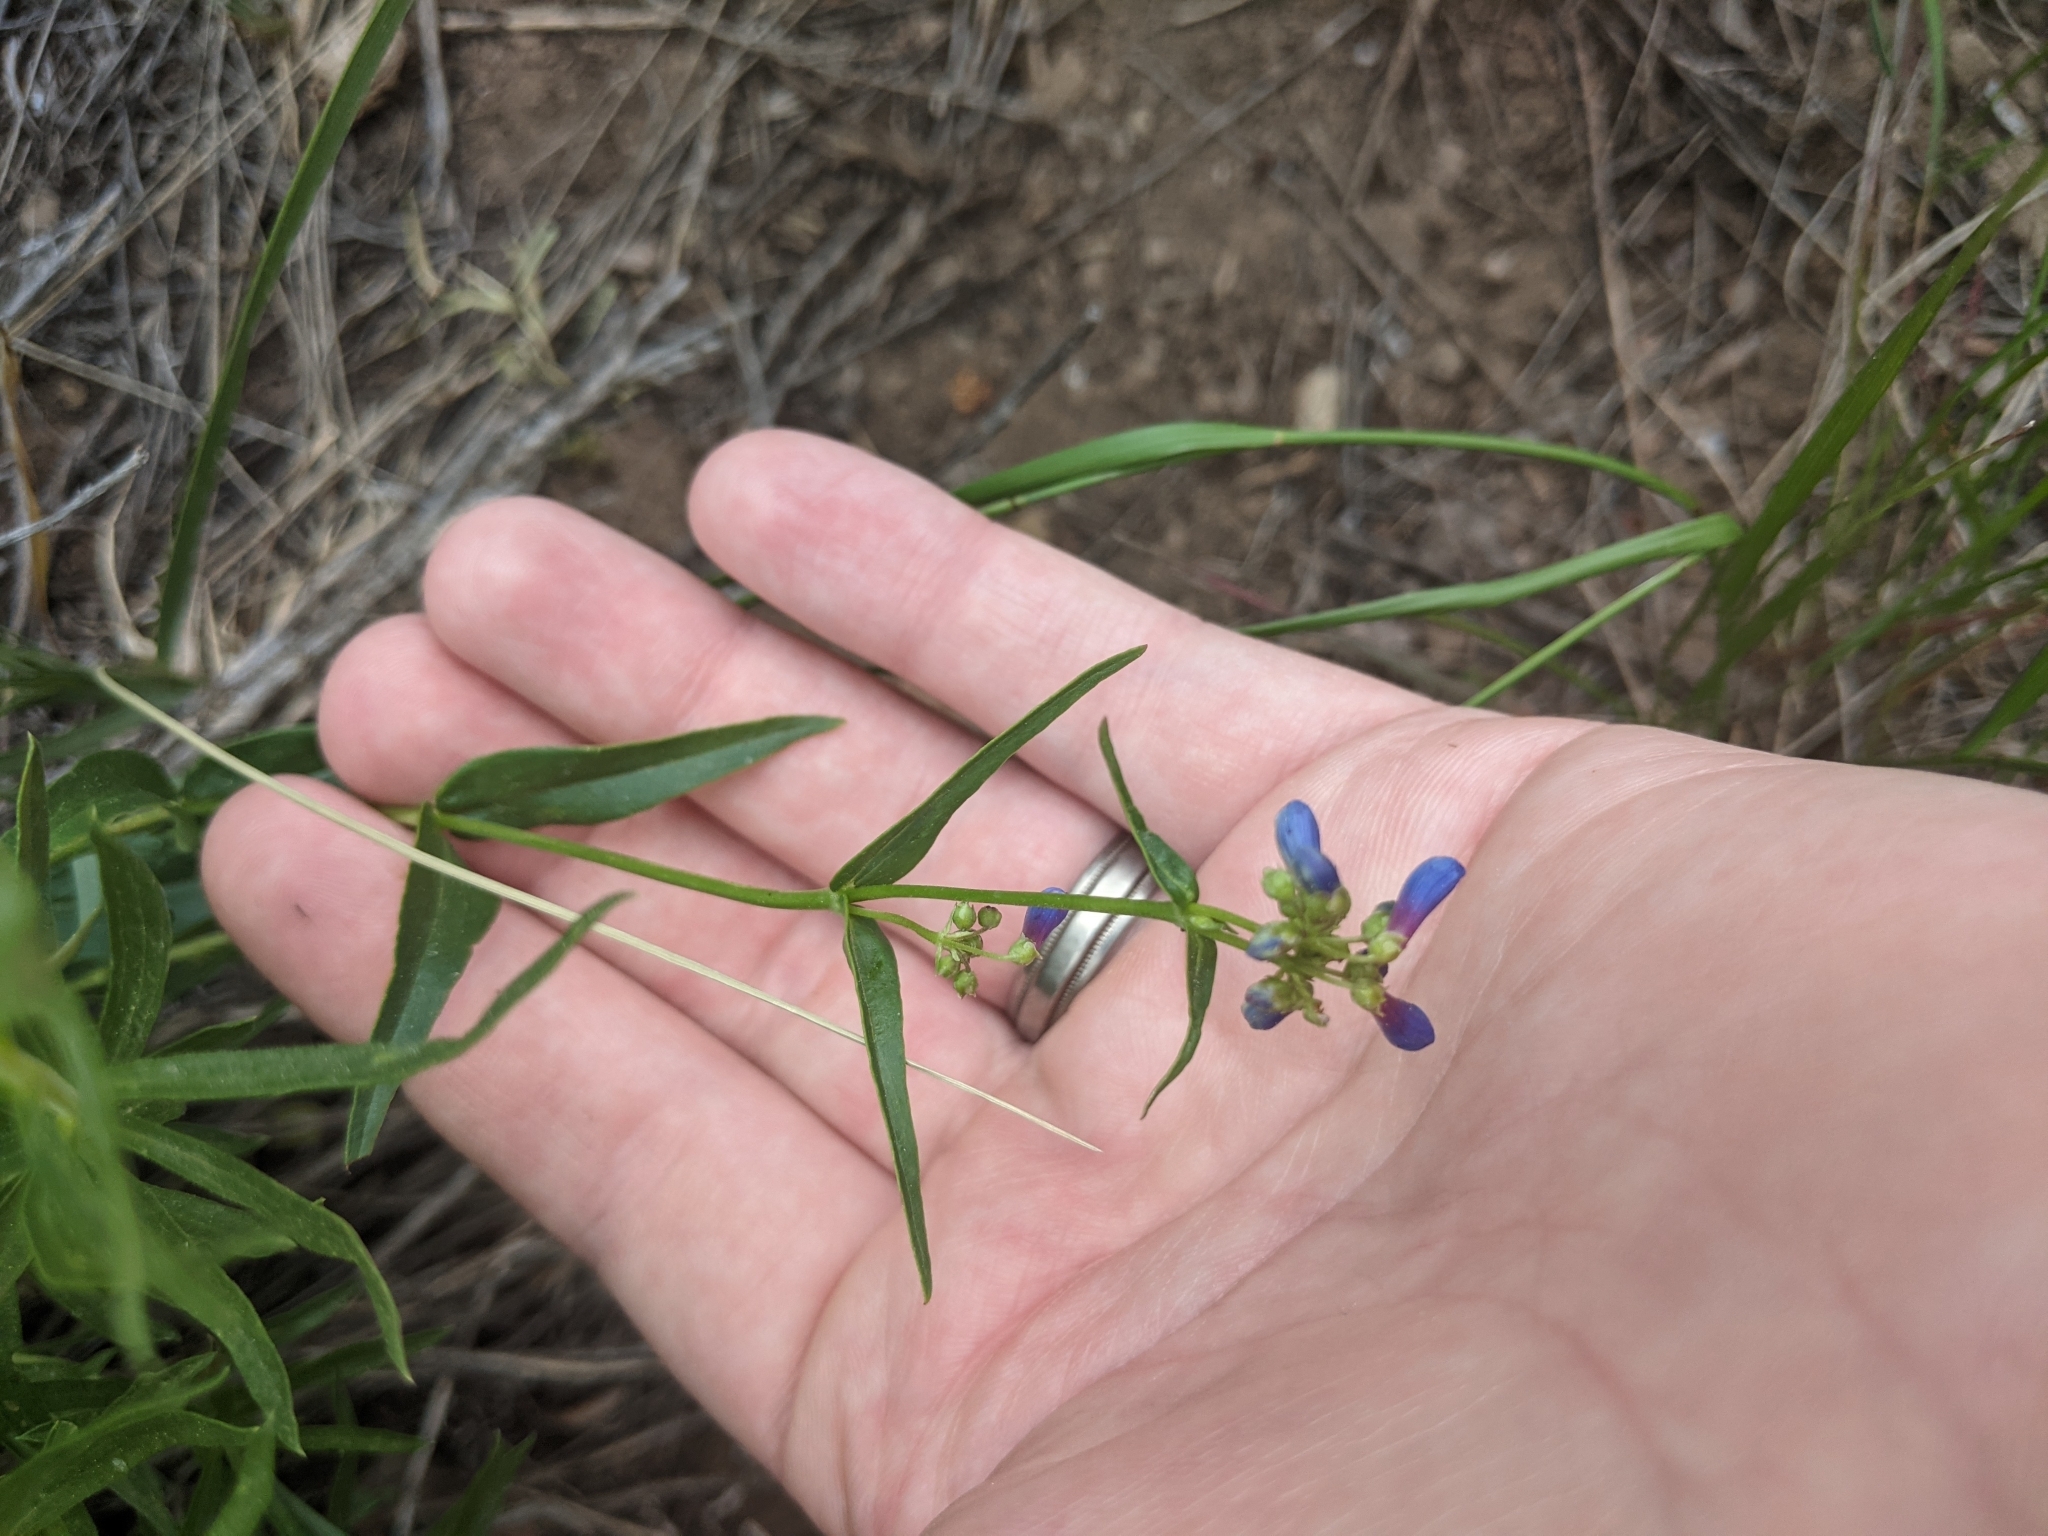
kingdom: Plantae
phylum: Tracheophyta
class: Magnoliopsida
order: Lamiales
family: Plantaginaceae
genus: Penstemon
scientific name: Penstemon watsonii
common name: Watson's penstemon
